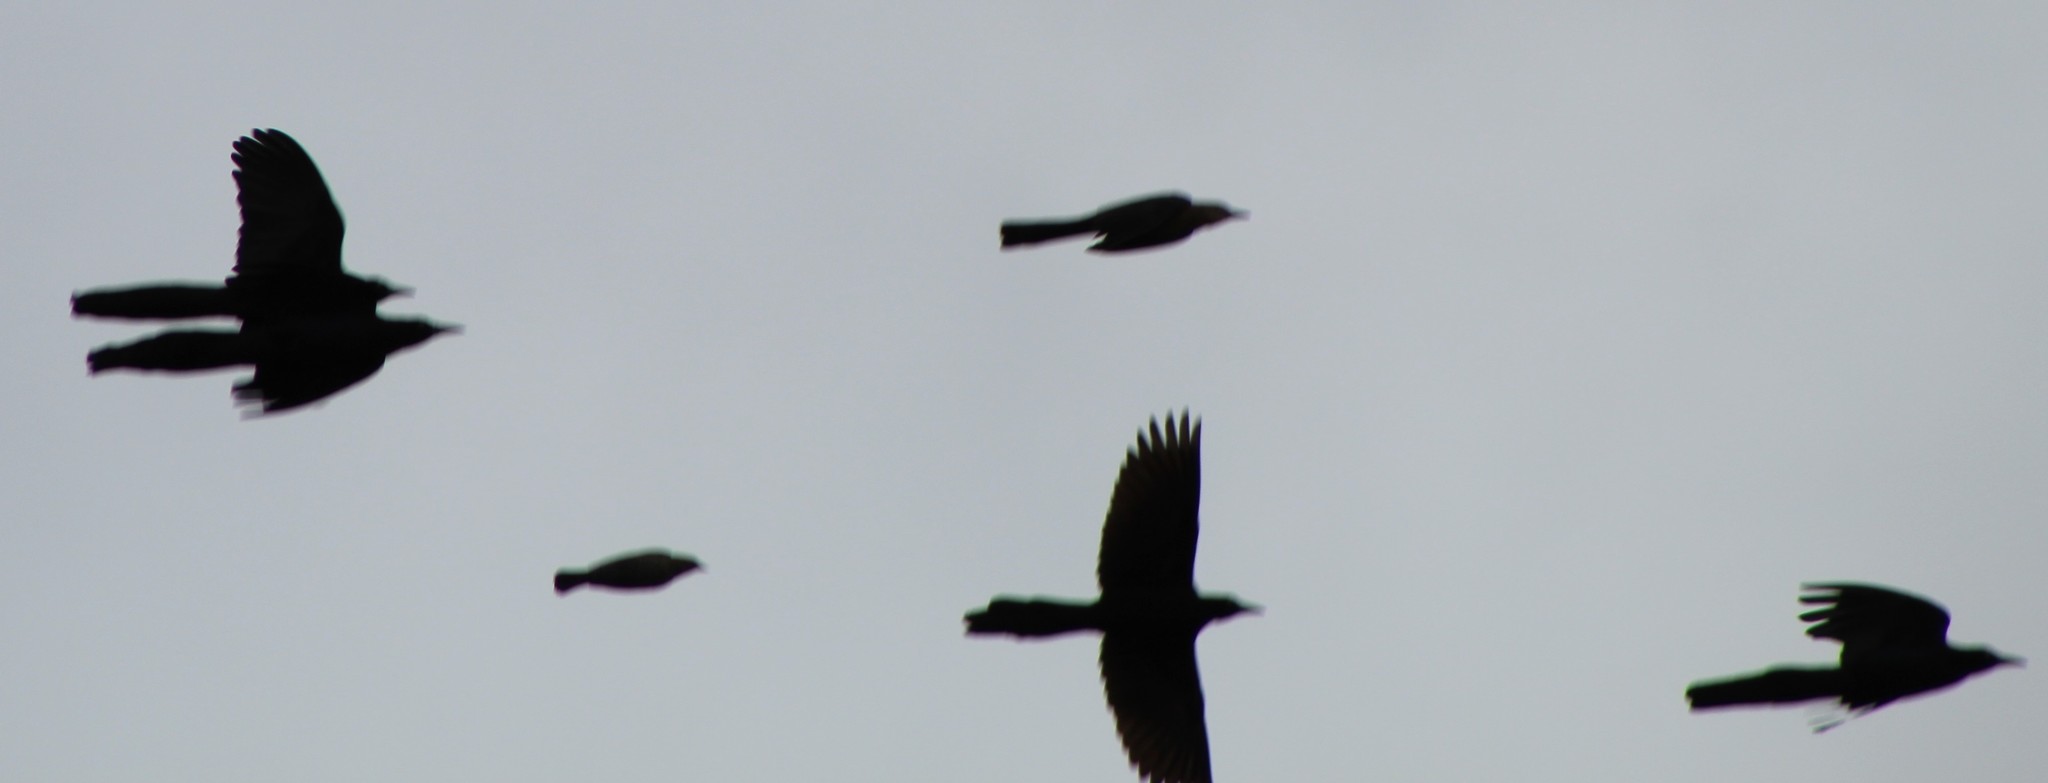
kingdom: Animalia
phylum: Chordata
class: Aves
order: Passeriformes
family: Icteridae
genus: Quiscalus
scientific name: Quiscalus mexicanus
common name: Great-tailed grackle
